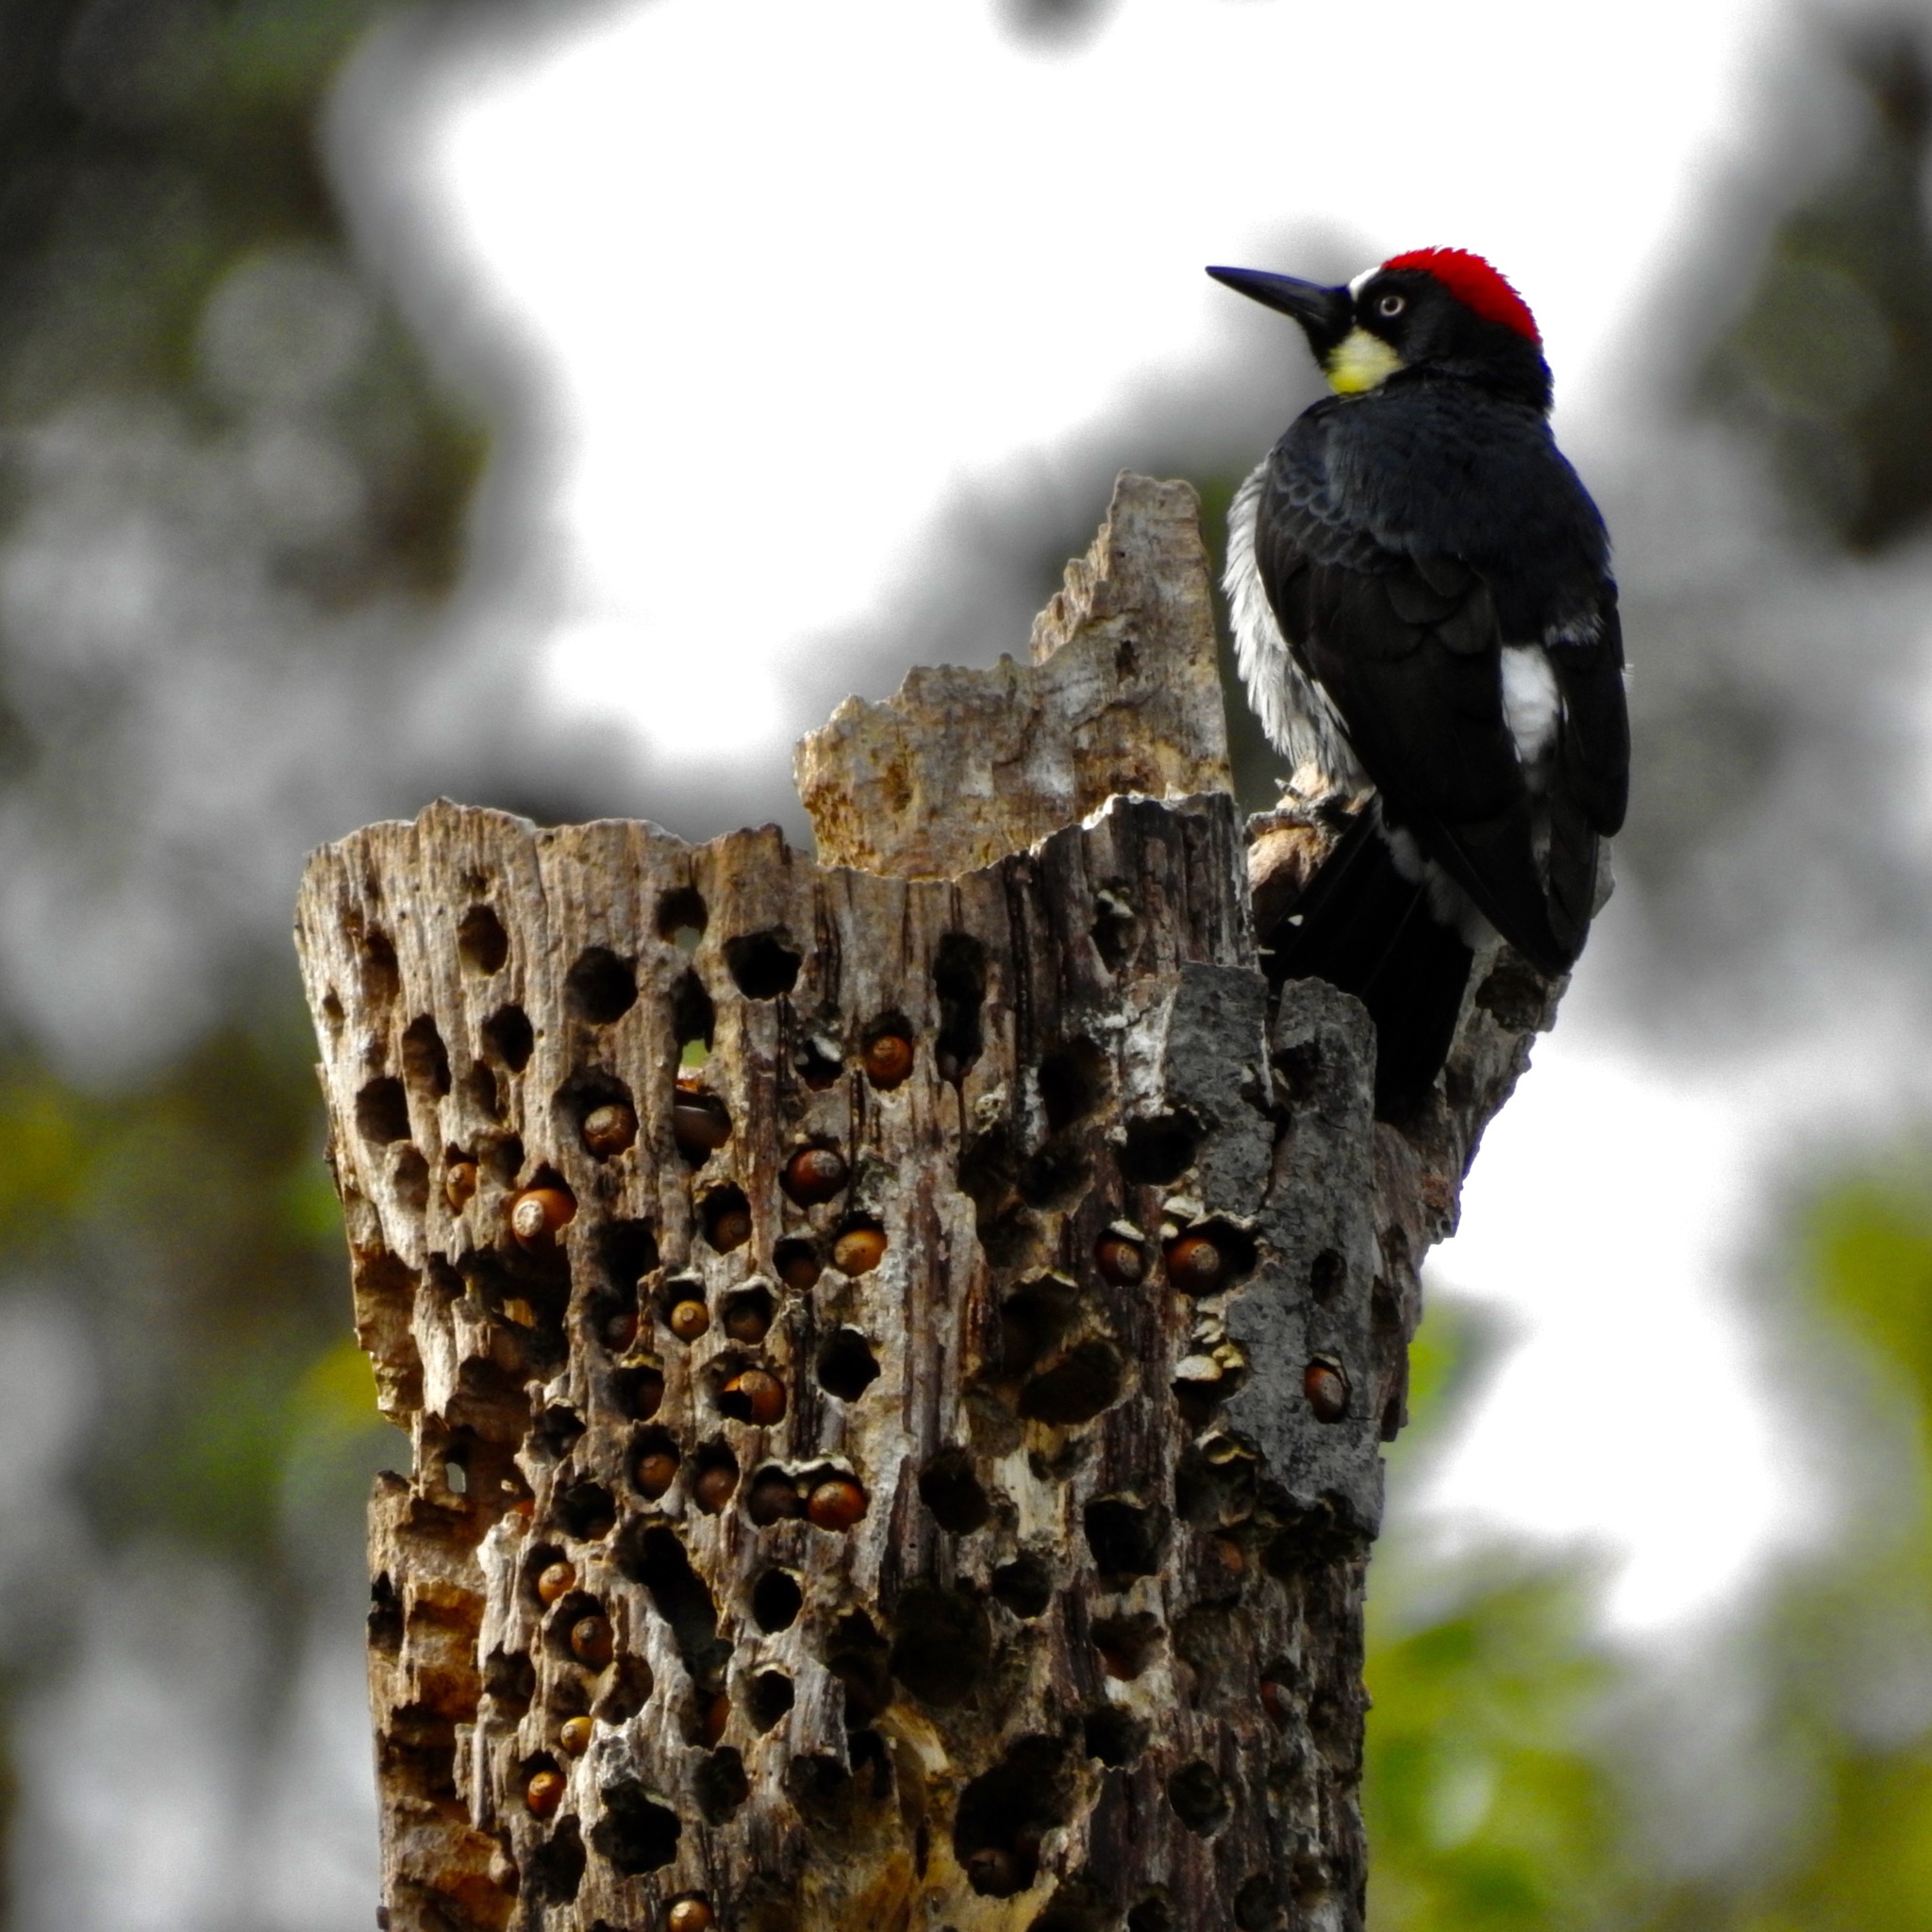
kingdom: Animalia
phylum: Chordata
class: Aves
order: Piciformes
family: Picidae
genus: Melanerpes
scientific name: Melanerpes formicivorus
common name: Acorn woodpecker
